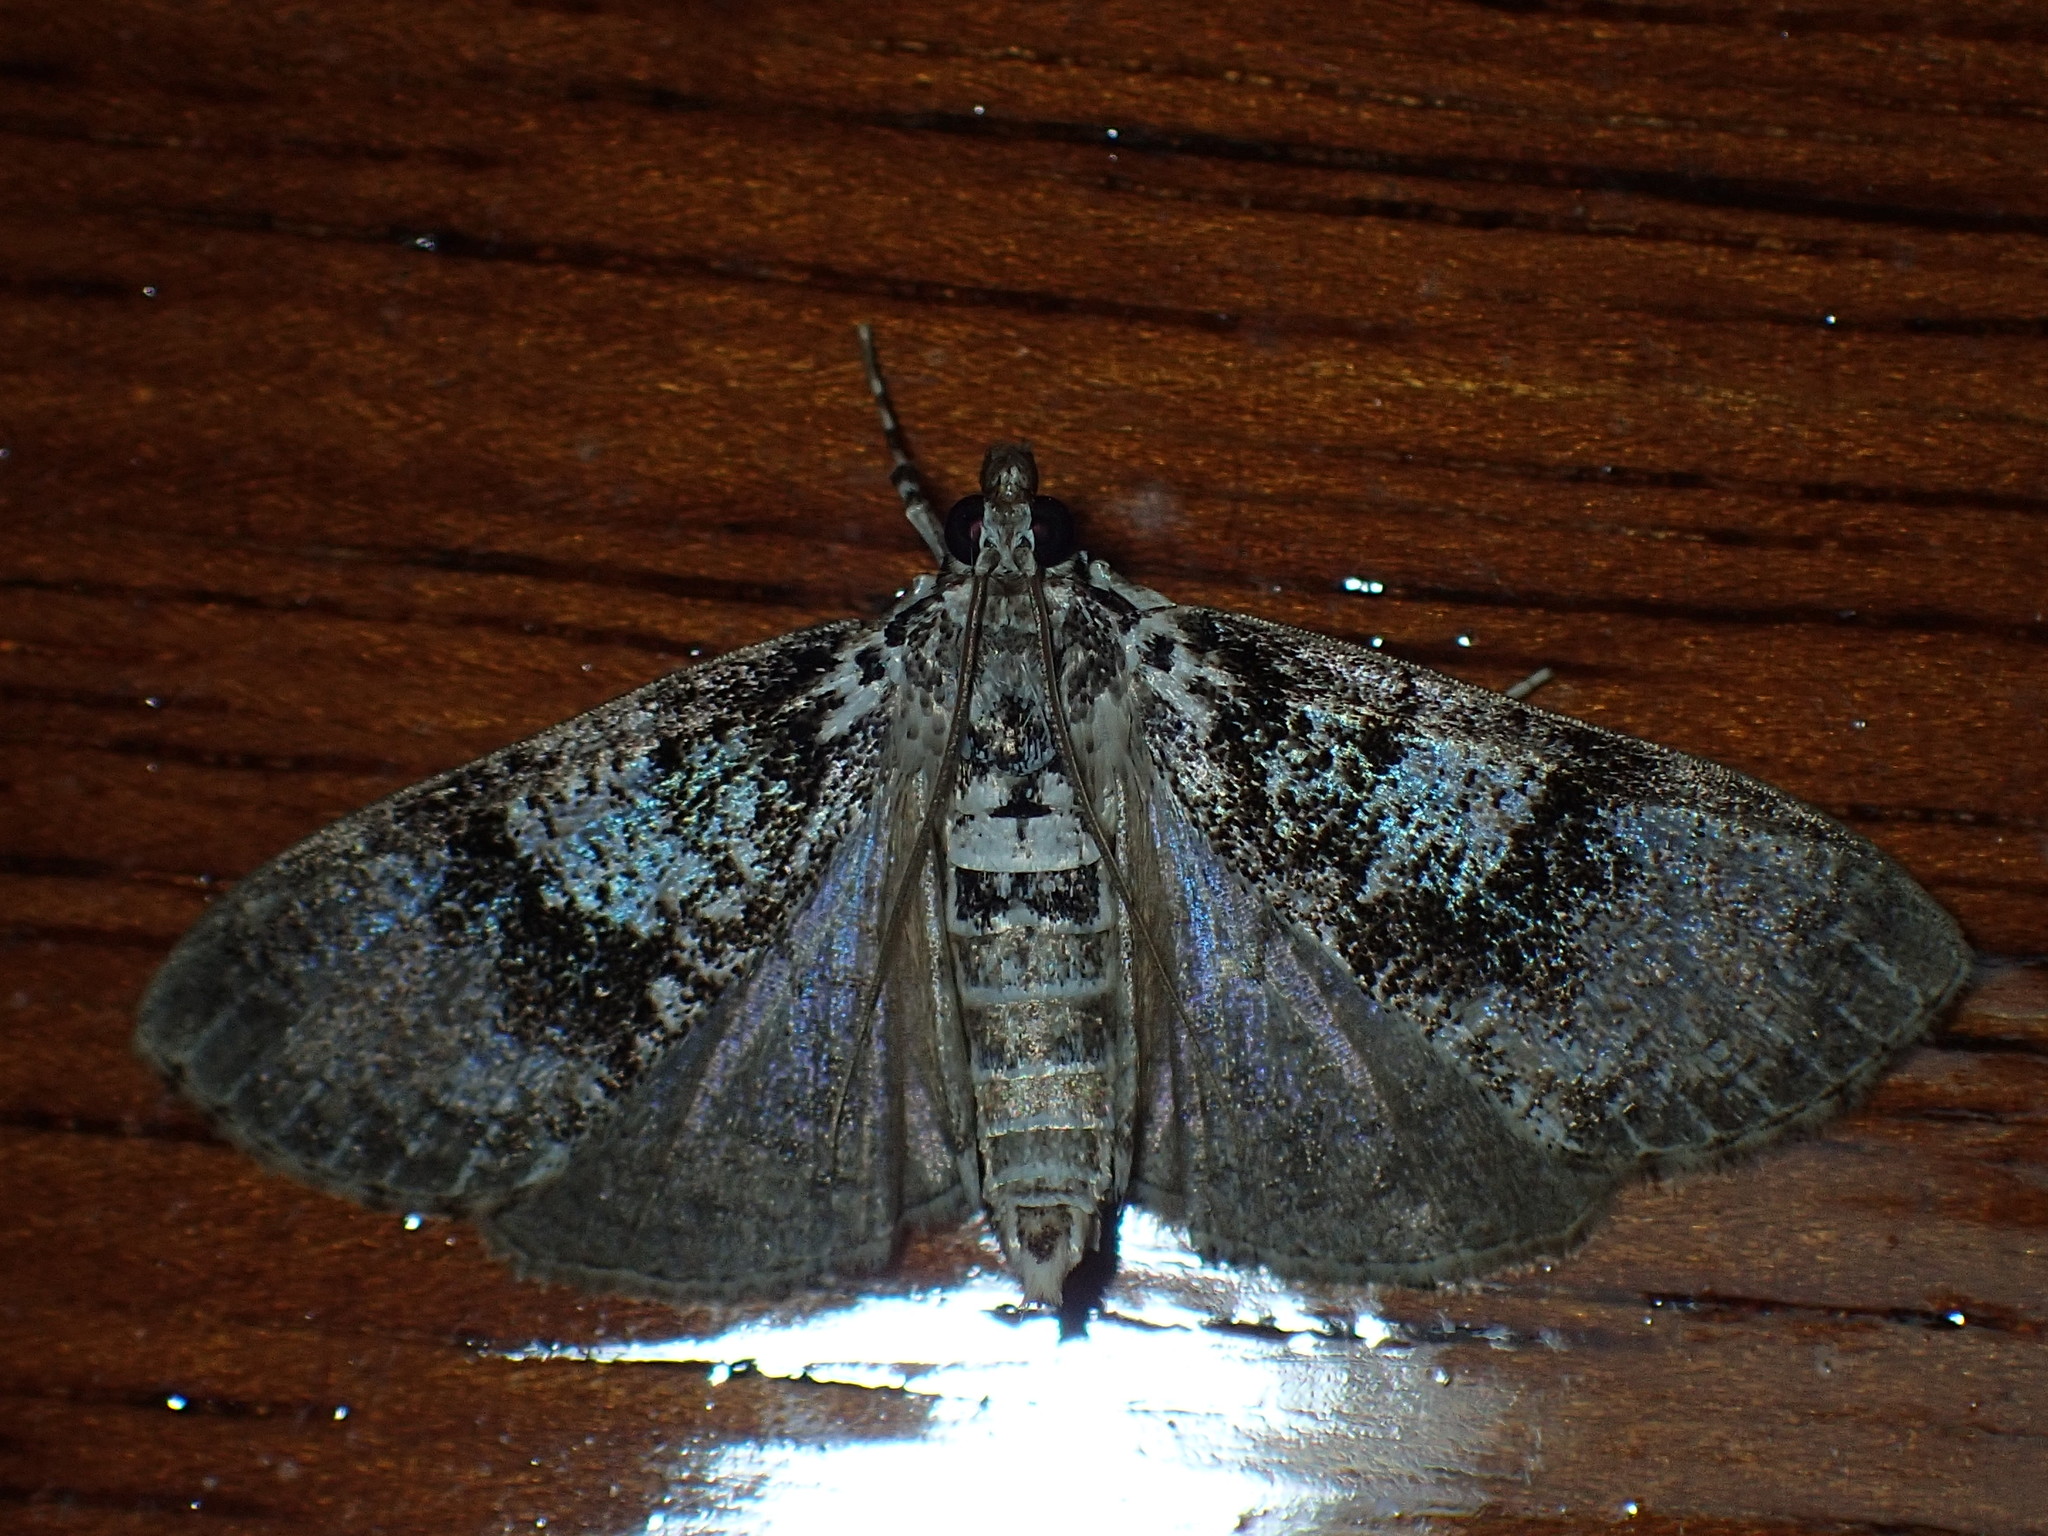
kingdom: Animalia
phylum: Arthropoda
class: Insecta
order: Lepidoptera
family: Crambidae
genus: Palpita
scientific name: Palpita magniferalis
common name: Splendid palpita moth
